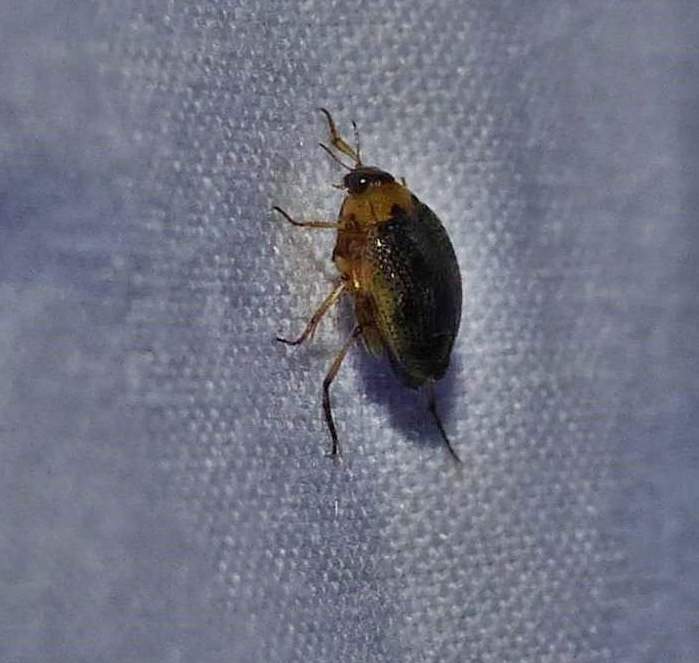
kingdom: Animalia
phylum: Arthropoda
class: Insecta
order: Coleoptera
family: Haliplidae
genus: Peltodytes
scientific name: Peltodytes edentulus
